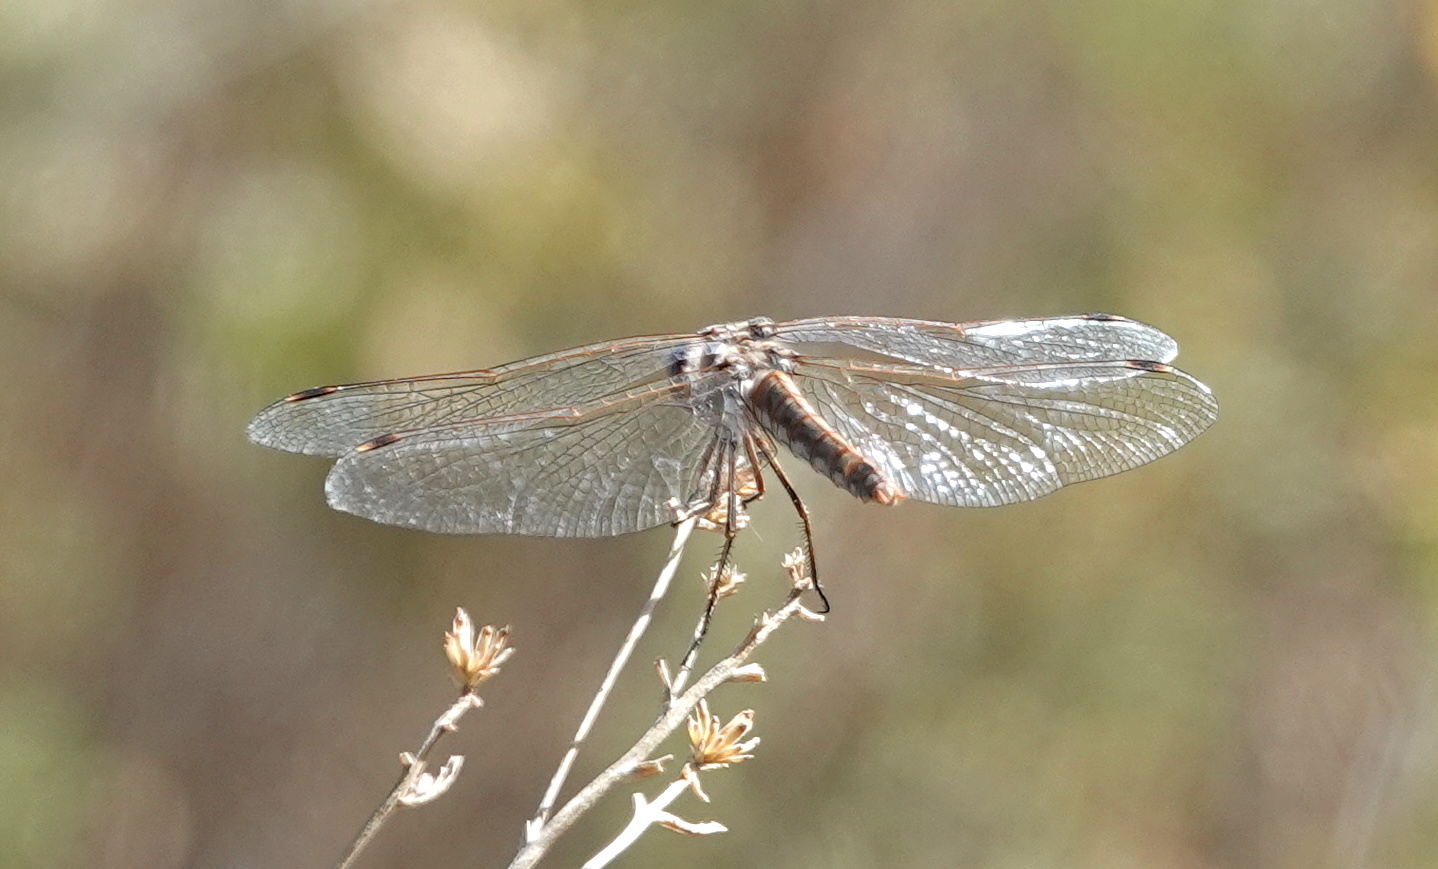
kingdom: Animalia
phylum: Arthropoda
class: Insecta
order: Odonata
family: Libellulidae
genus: Sympetrum
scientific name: Sympetrum corruptum
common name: Variegated meadowhawk
